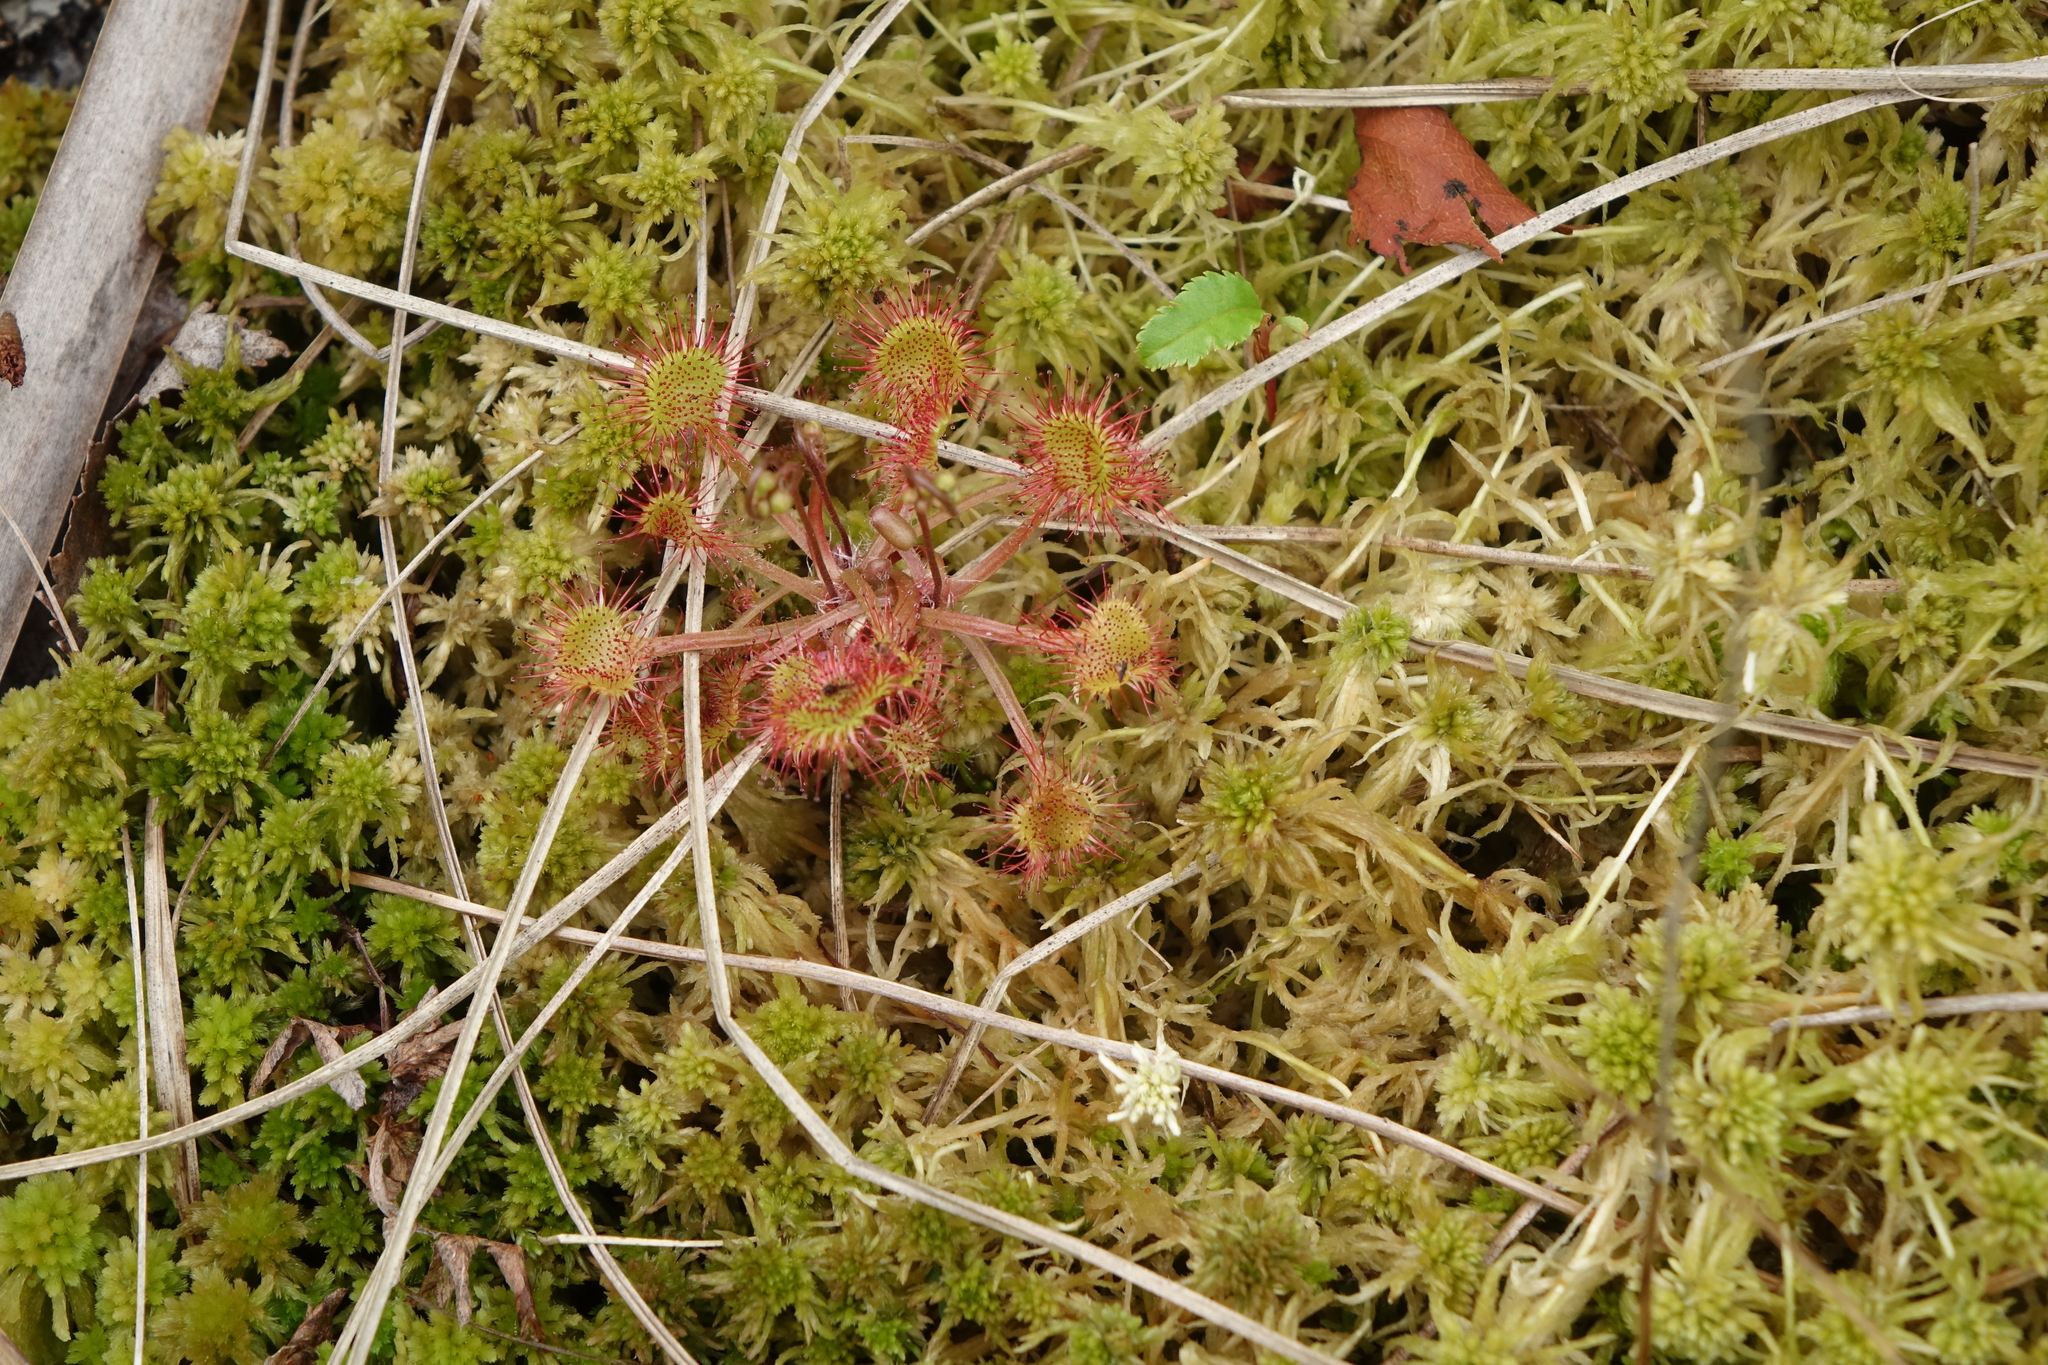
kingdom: Plantae
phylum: Tracheophyta
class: Magnoliopsida
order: Caryophyllales
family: Droseraceae
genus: Drosera
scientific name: Drosera rotundifolia
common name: Round-leaved sundew
